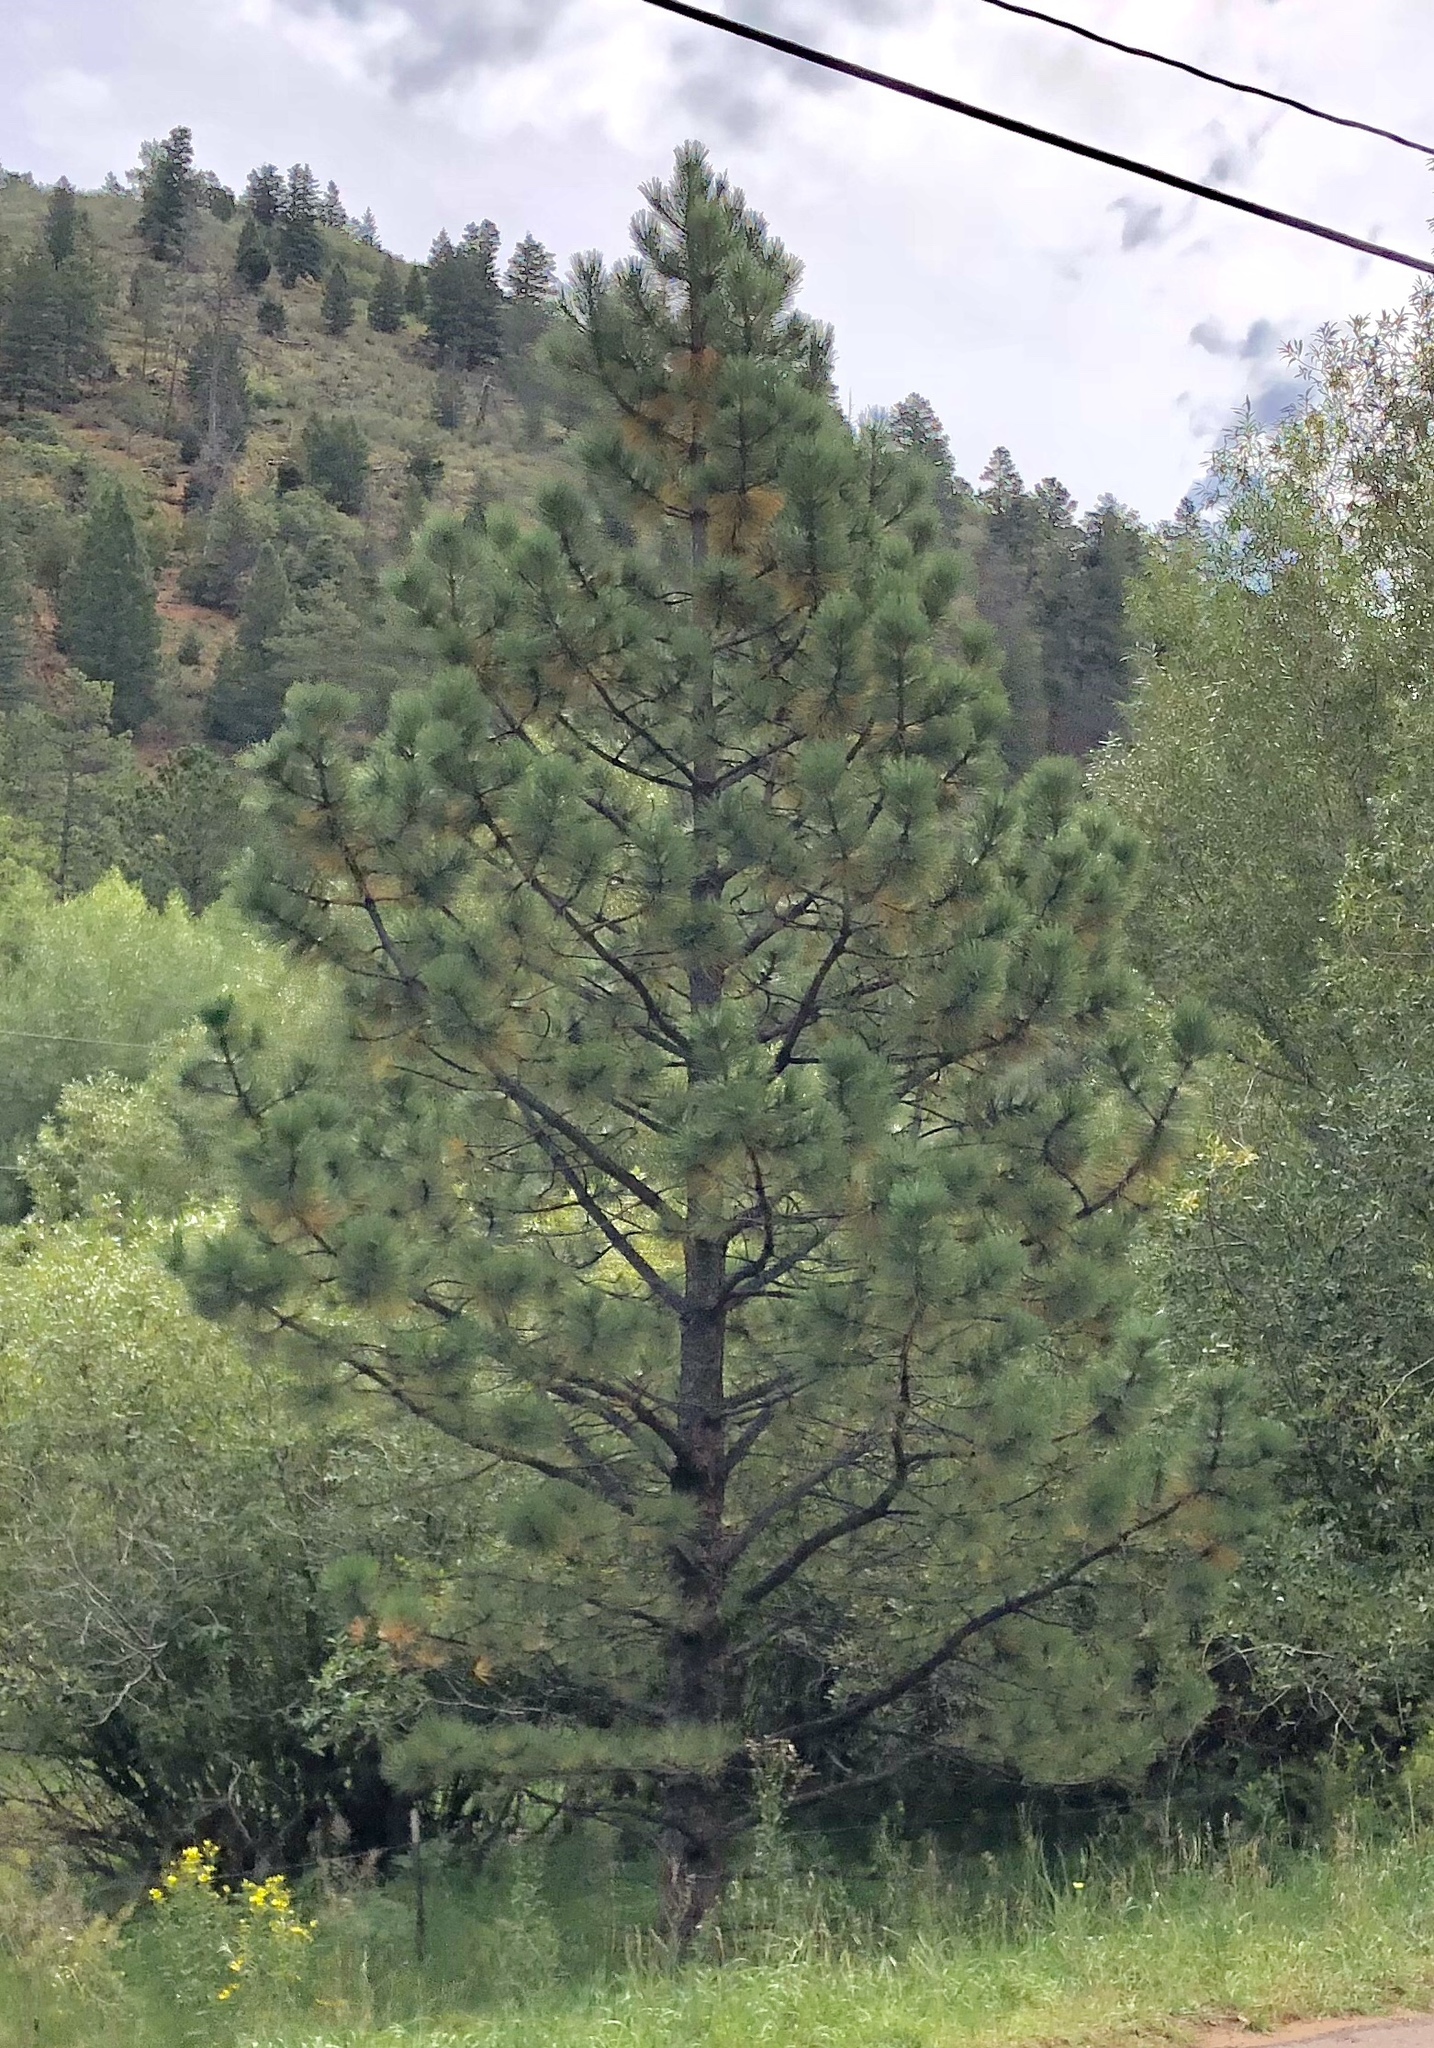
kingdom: Plantae
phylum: Tracheophyta
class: Pinopsida
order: Pinales
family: Pinaceae
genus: Pinus
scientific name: Pinus ponderosa
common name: Western yellow-pine
